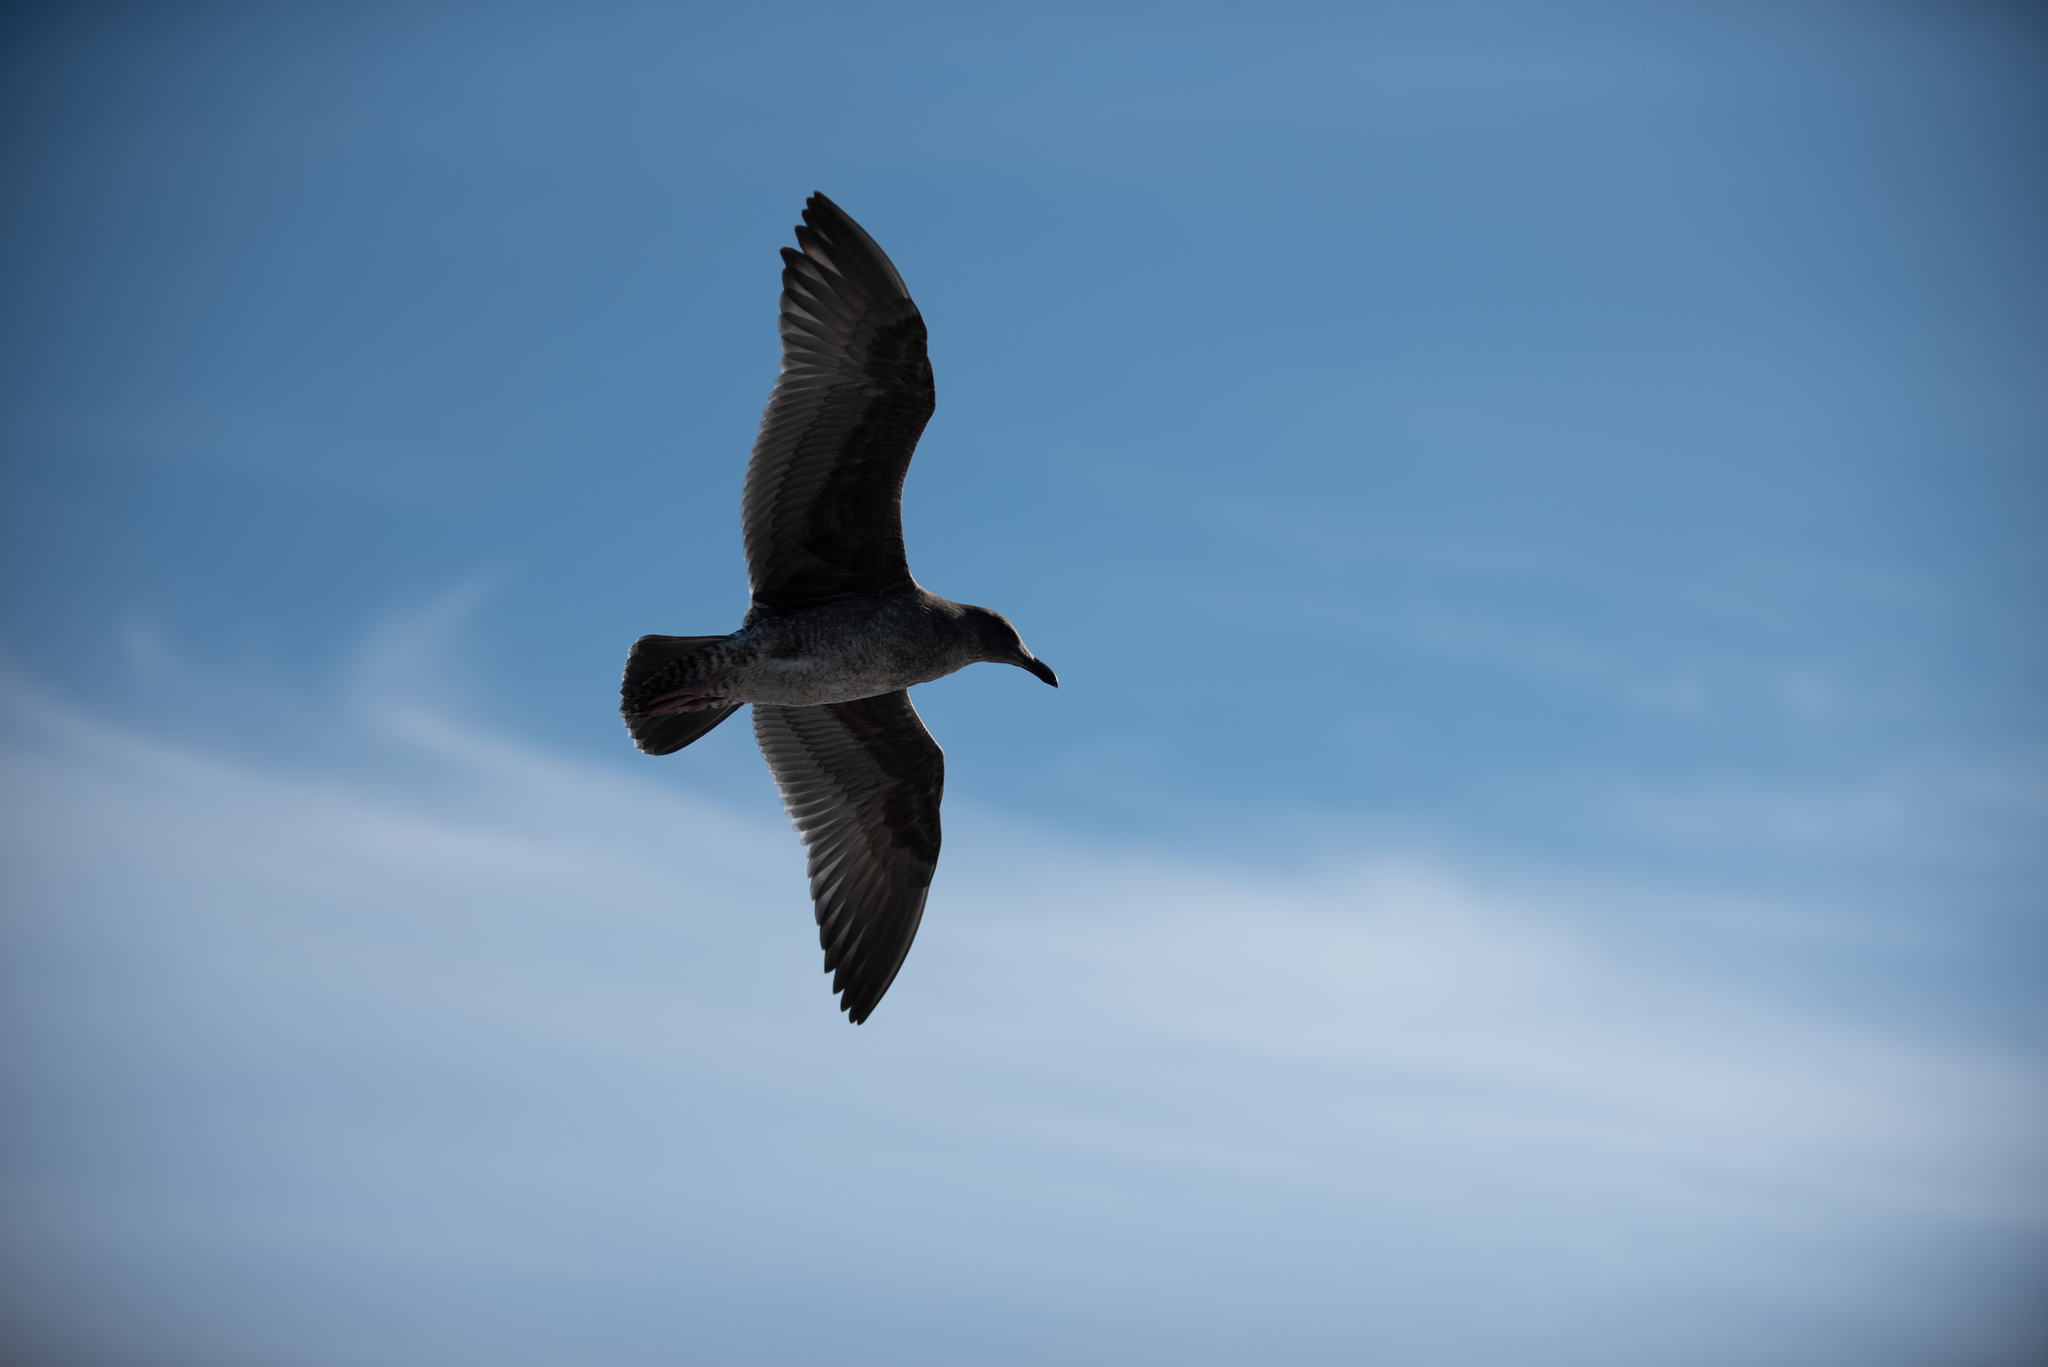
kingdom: Animalia
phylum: Chordata
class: Aves
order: Charadriiformes
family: Laridae
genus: Larus
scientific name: Larus occidentalis
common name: Western gull
